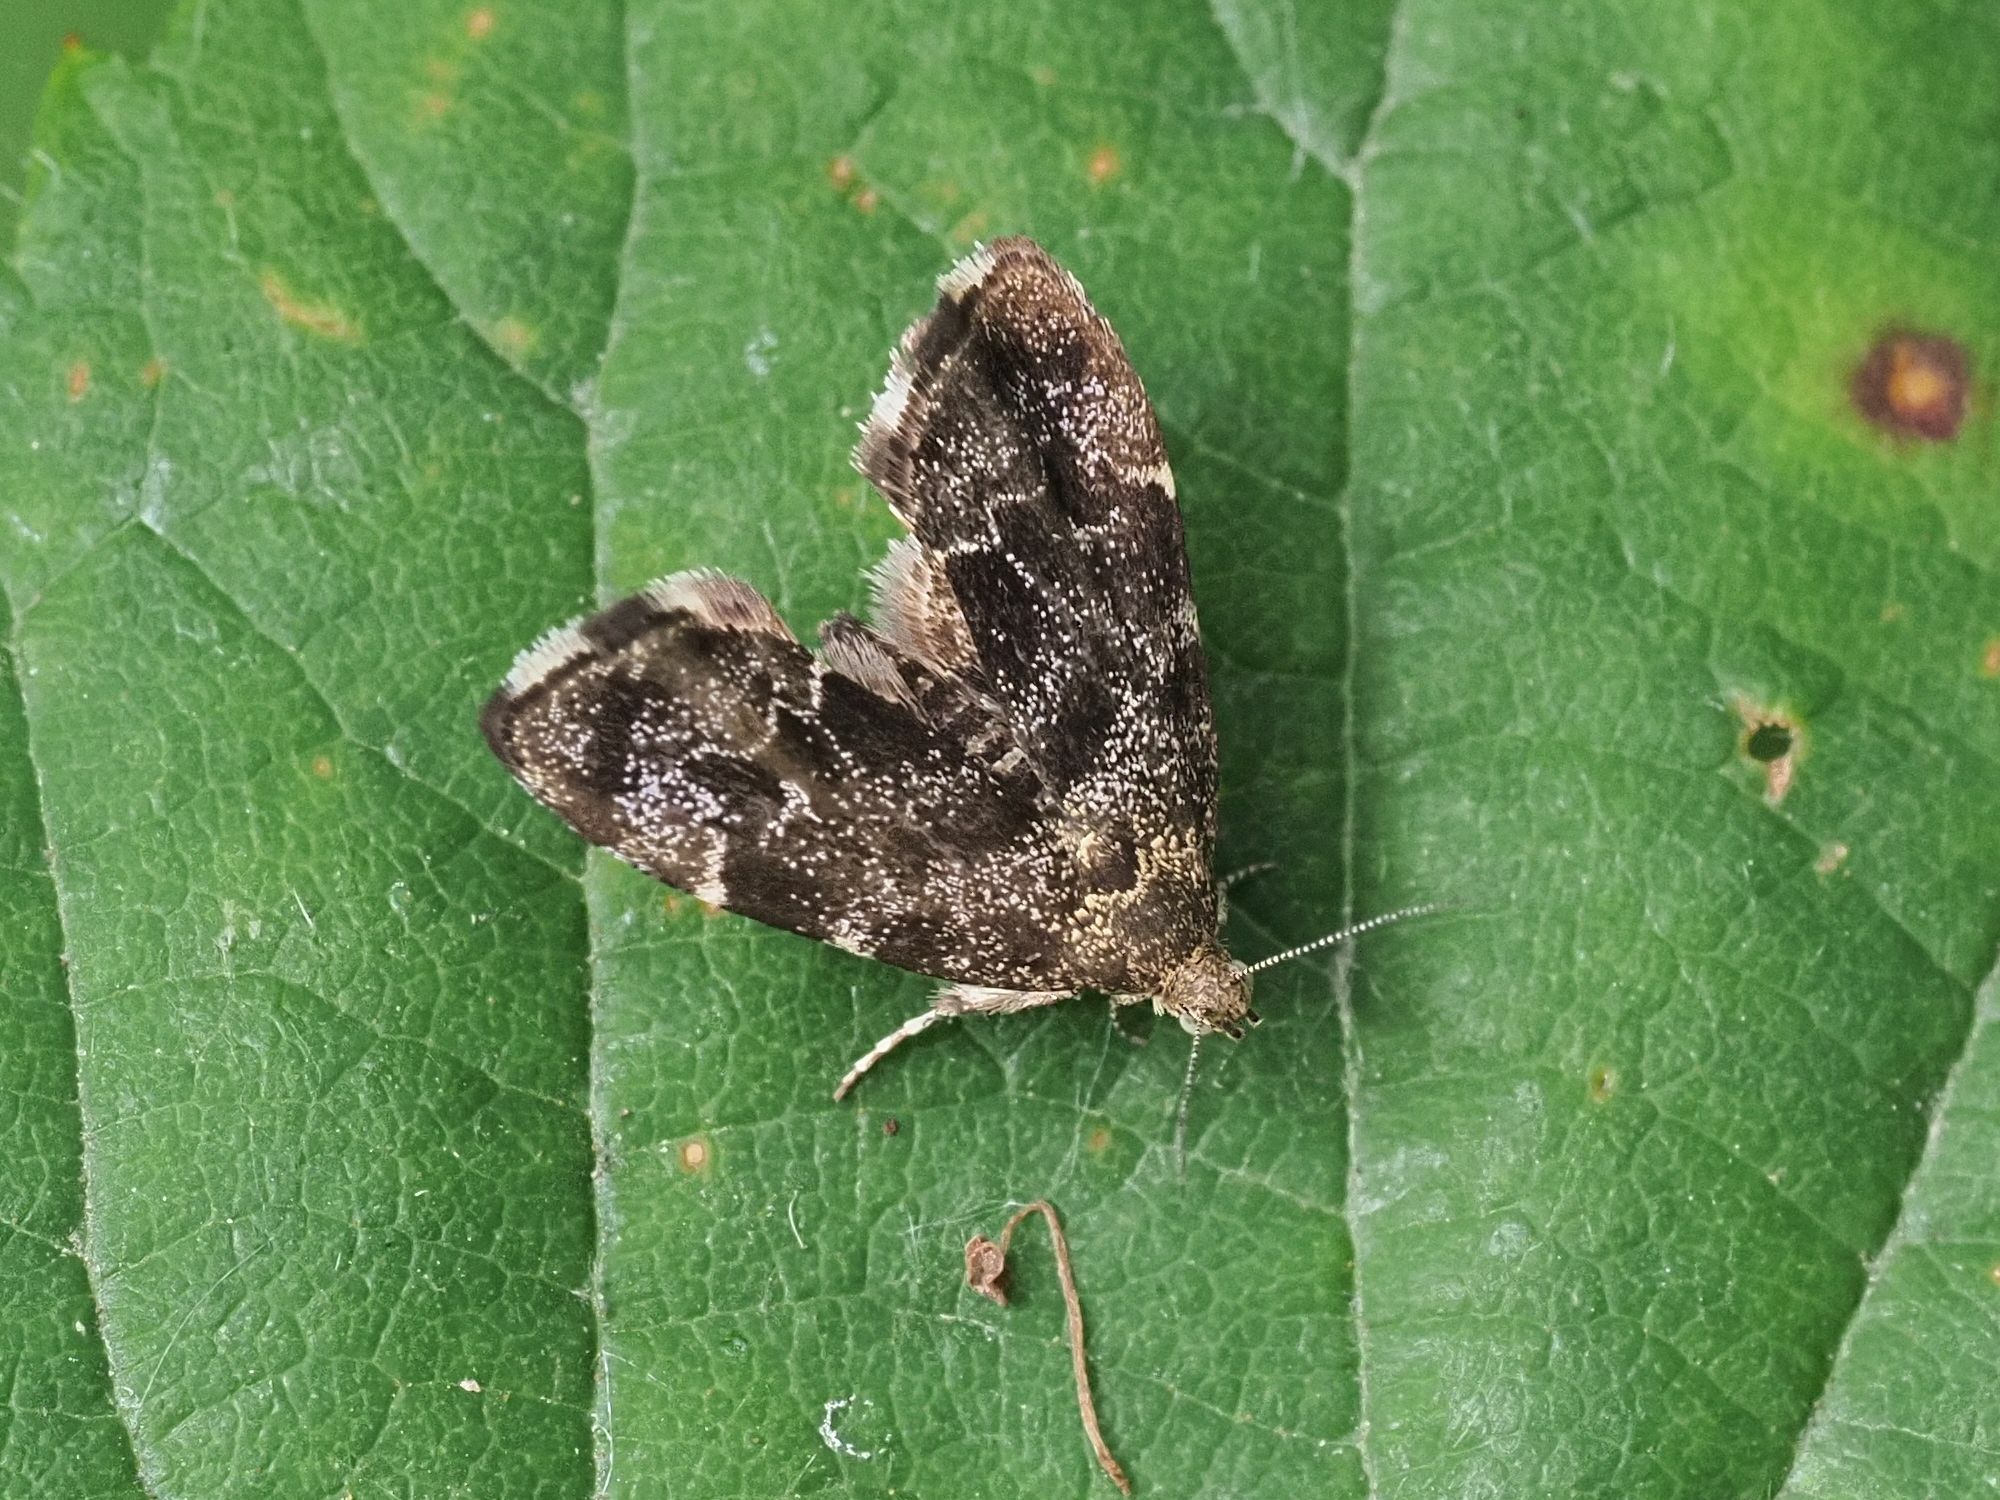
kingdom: Animalia
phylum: Arthropoda
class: Insecta
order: Lepidoptera
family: Choreutidae
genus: Anthophila
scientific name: Anthophila fabriciana
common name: Nettle-tap
